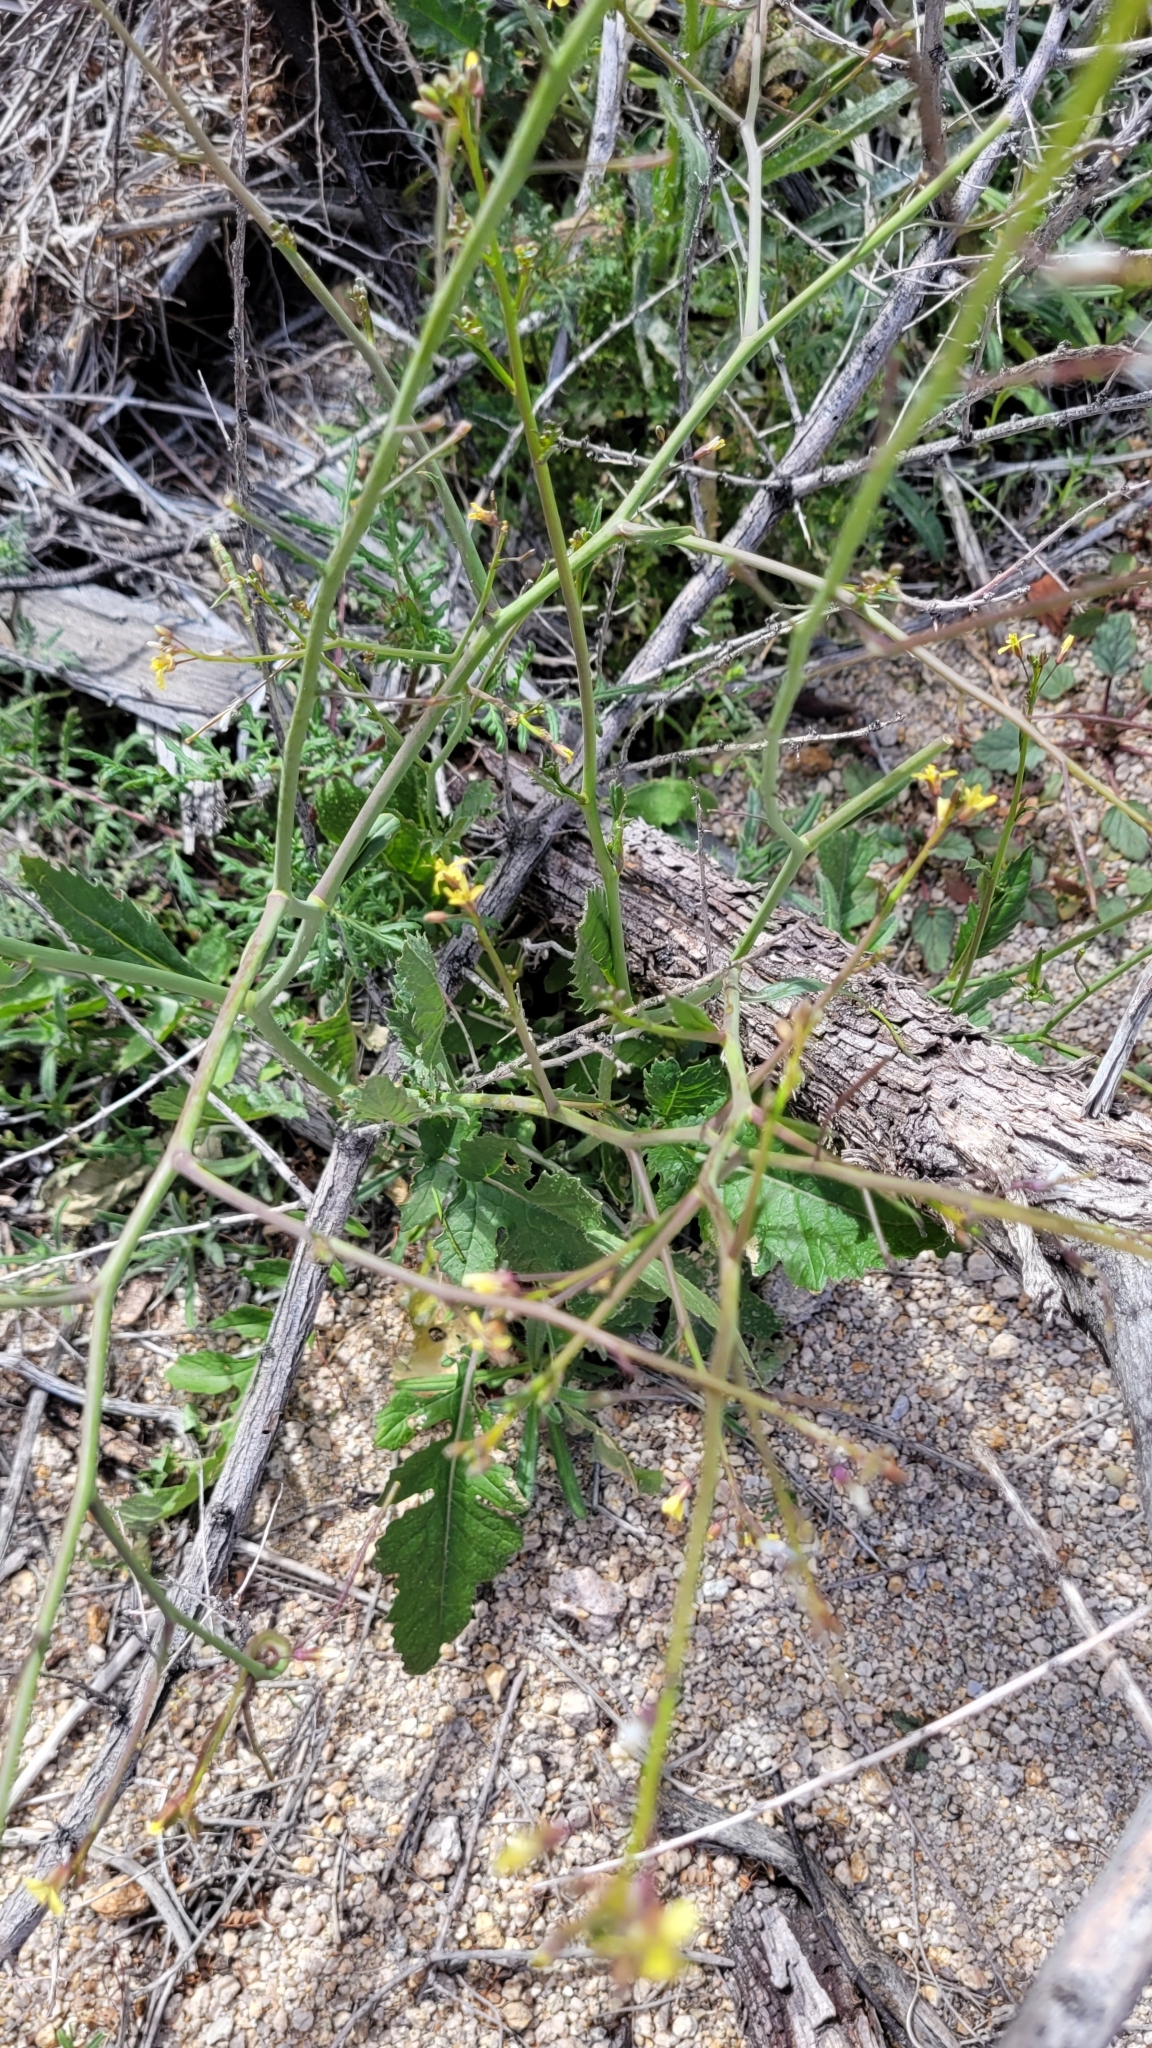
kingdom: Plantae
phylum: Tracheophyta
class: Magnoliopsida
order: Brassicales
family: Brassicaceae
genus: Brassica
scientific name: Brassica tournefortii
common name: Pale cabbage
